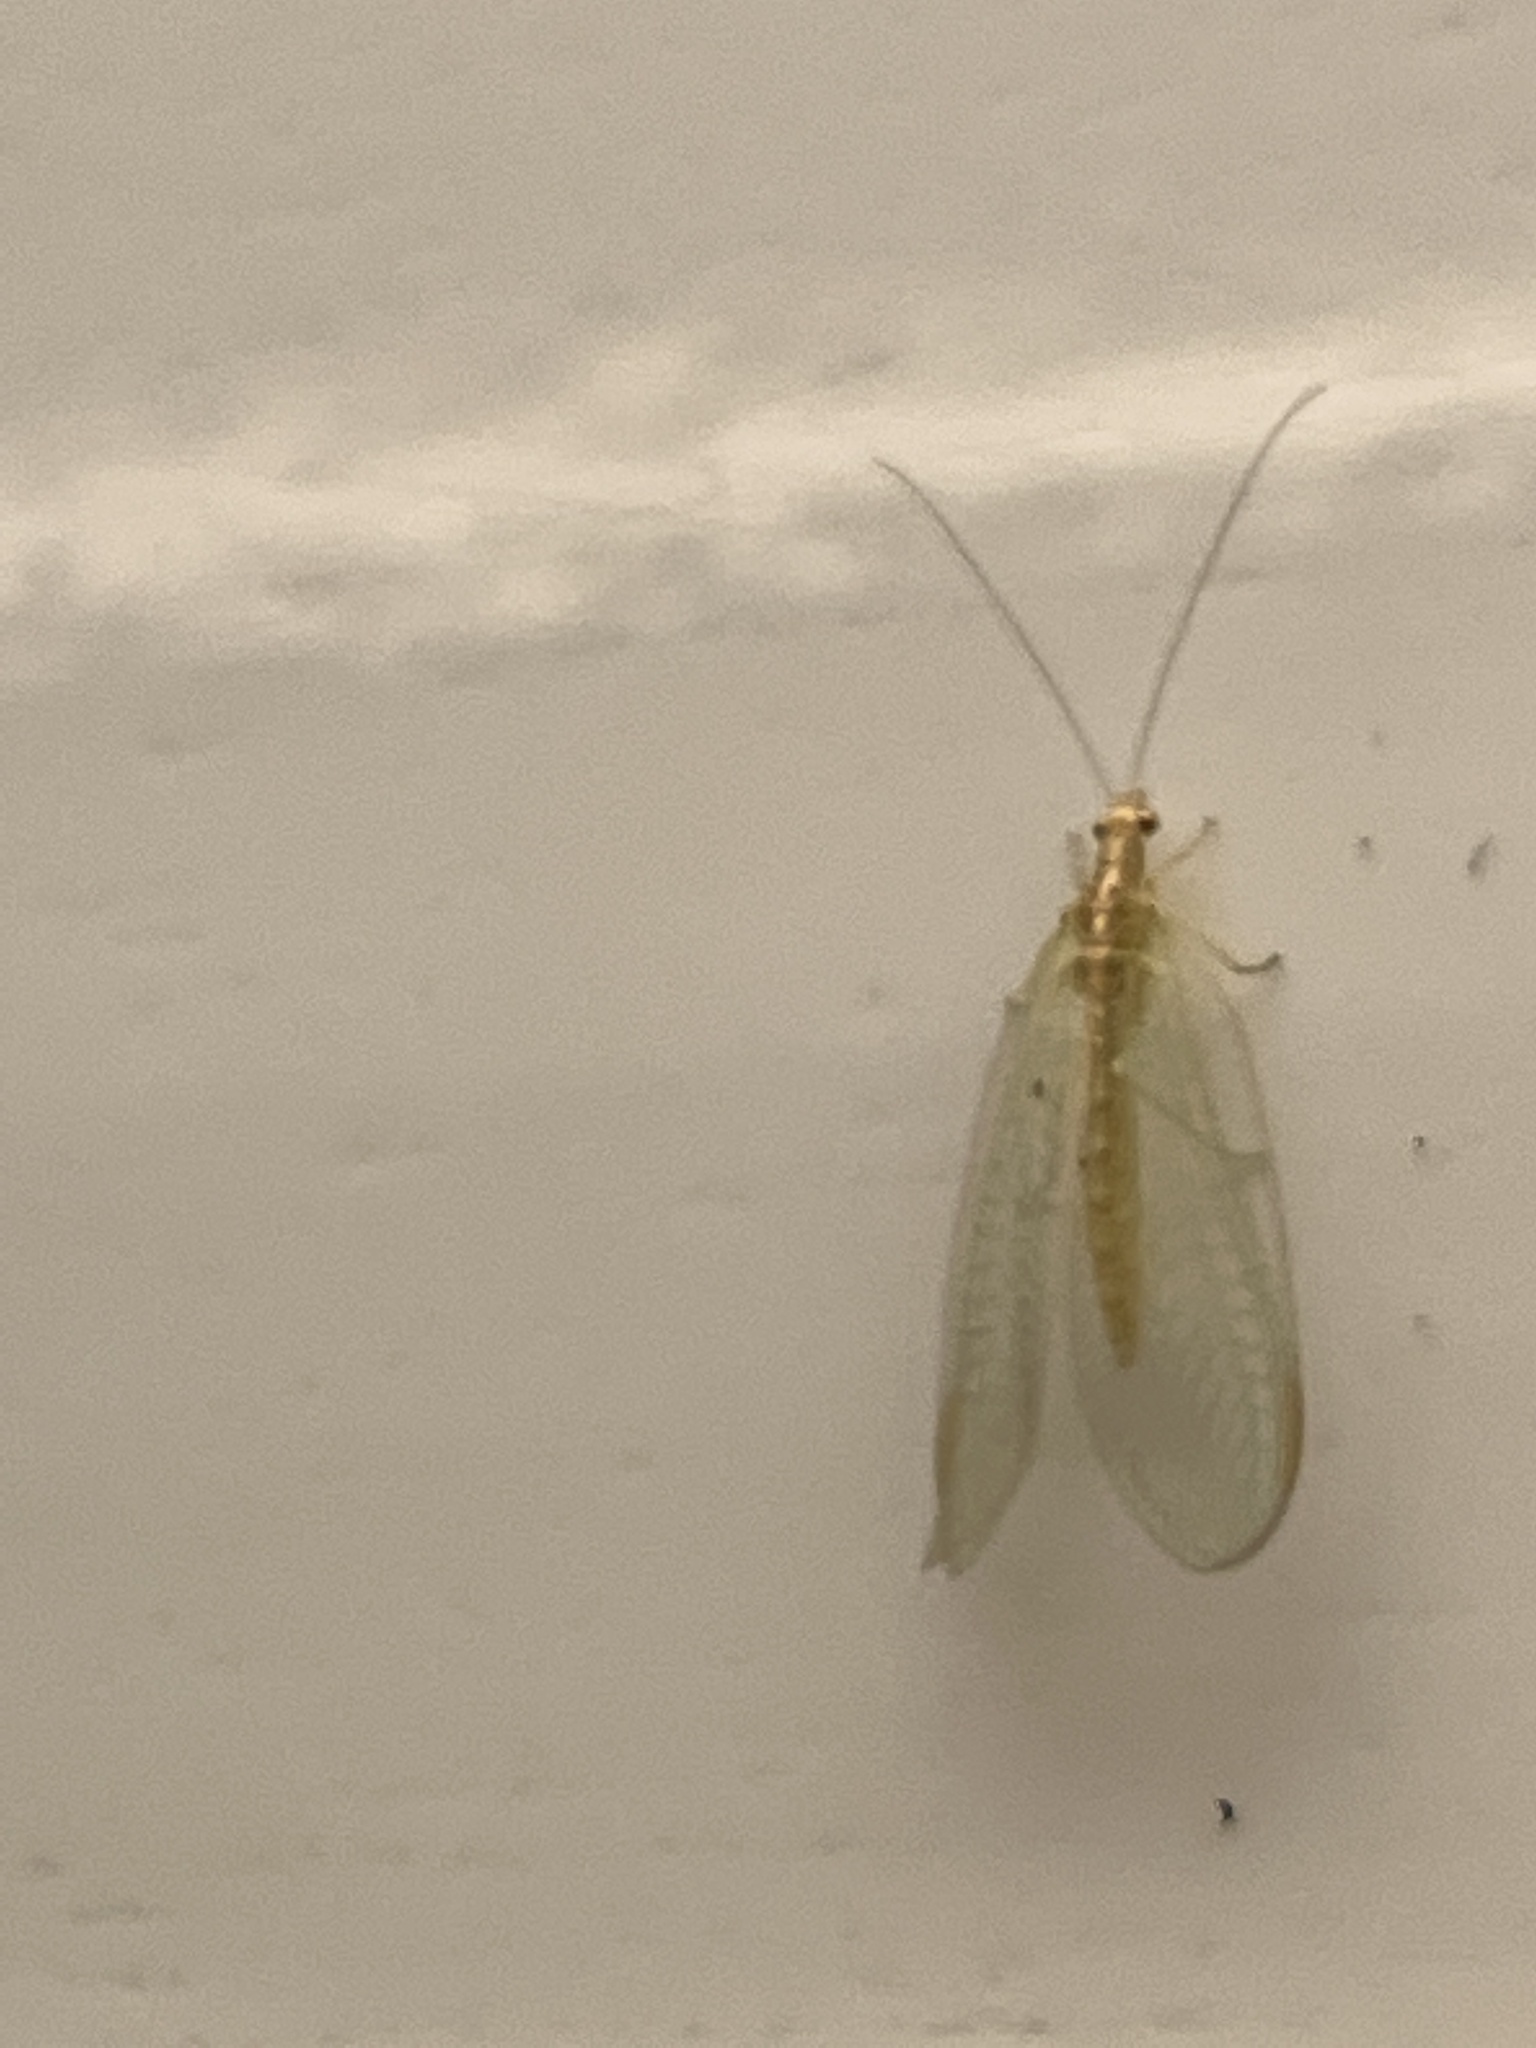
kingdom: Animalia
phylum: Arthropoda
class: Insecta
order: Neuroptera
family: Chrysopidae
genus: Chrysoperla
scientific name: Chrysoperla
